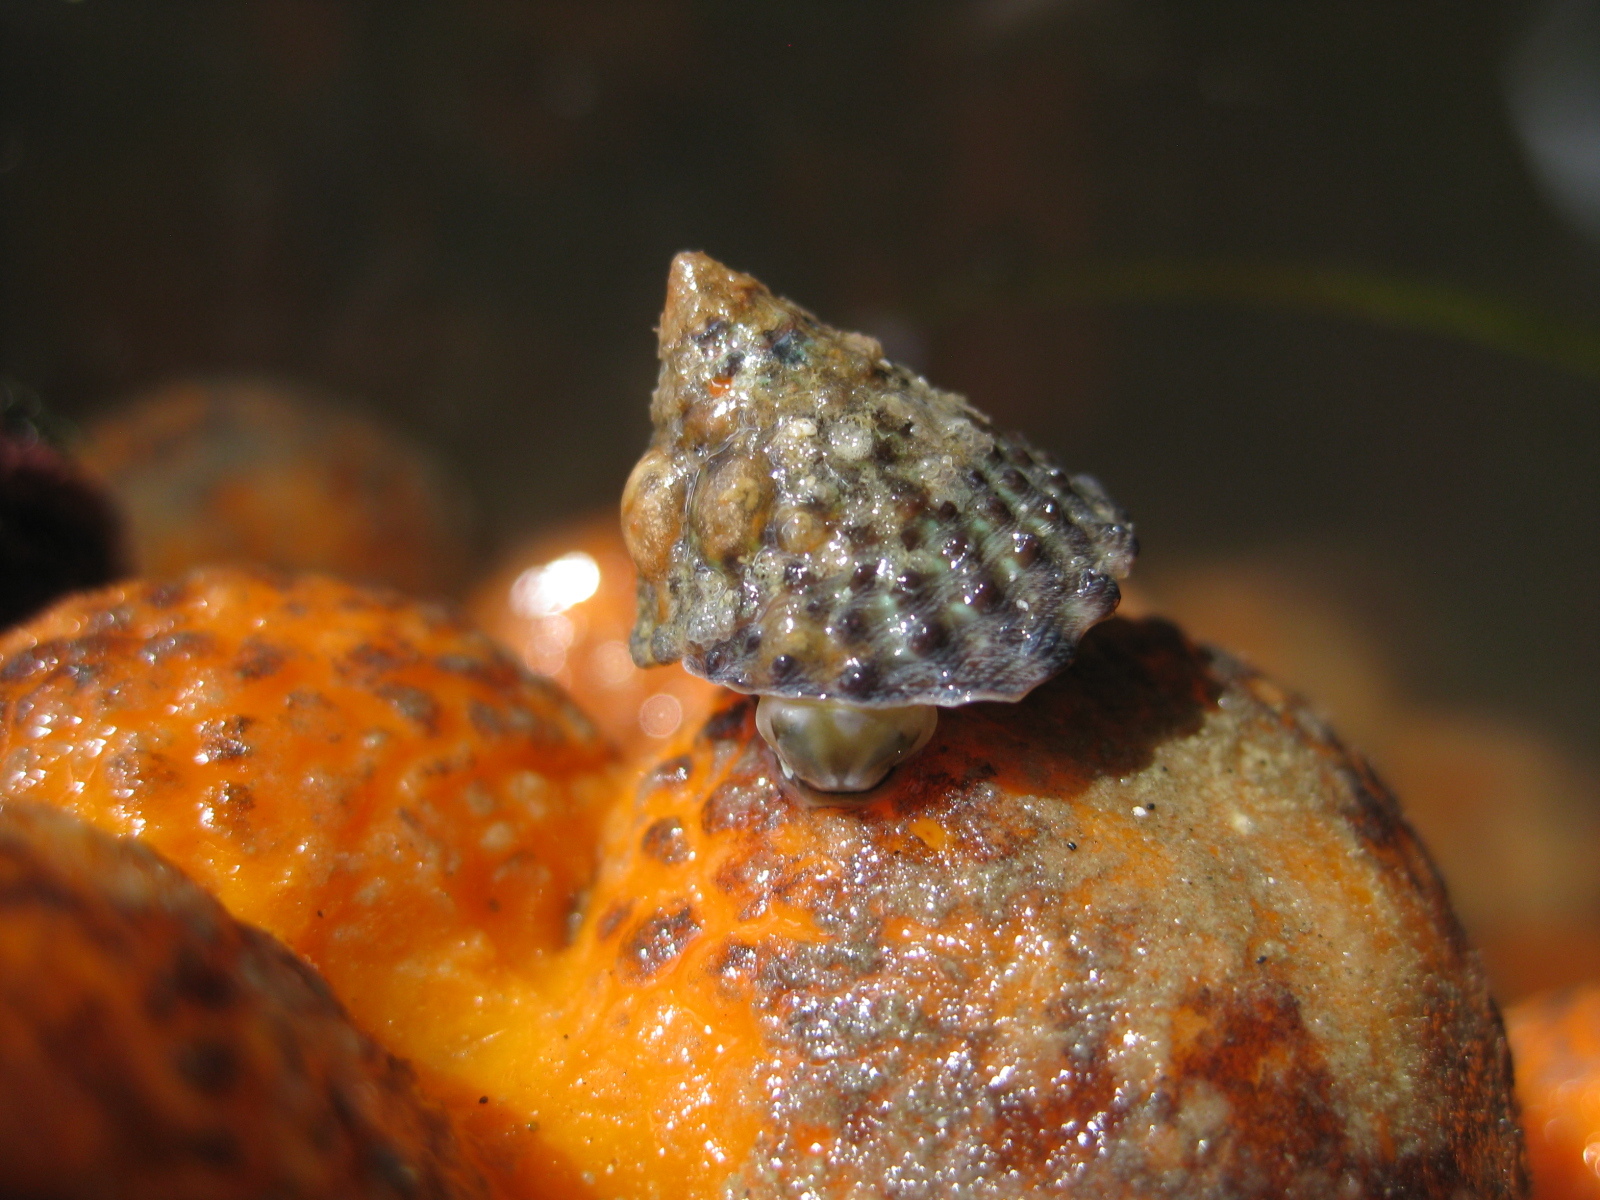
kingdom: Animalia
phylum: Mollusca
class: Gastropoda
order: Trochida
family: Trochidae
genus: Coelotrochus
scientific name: Coelotrochus viridis
